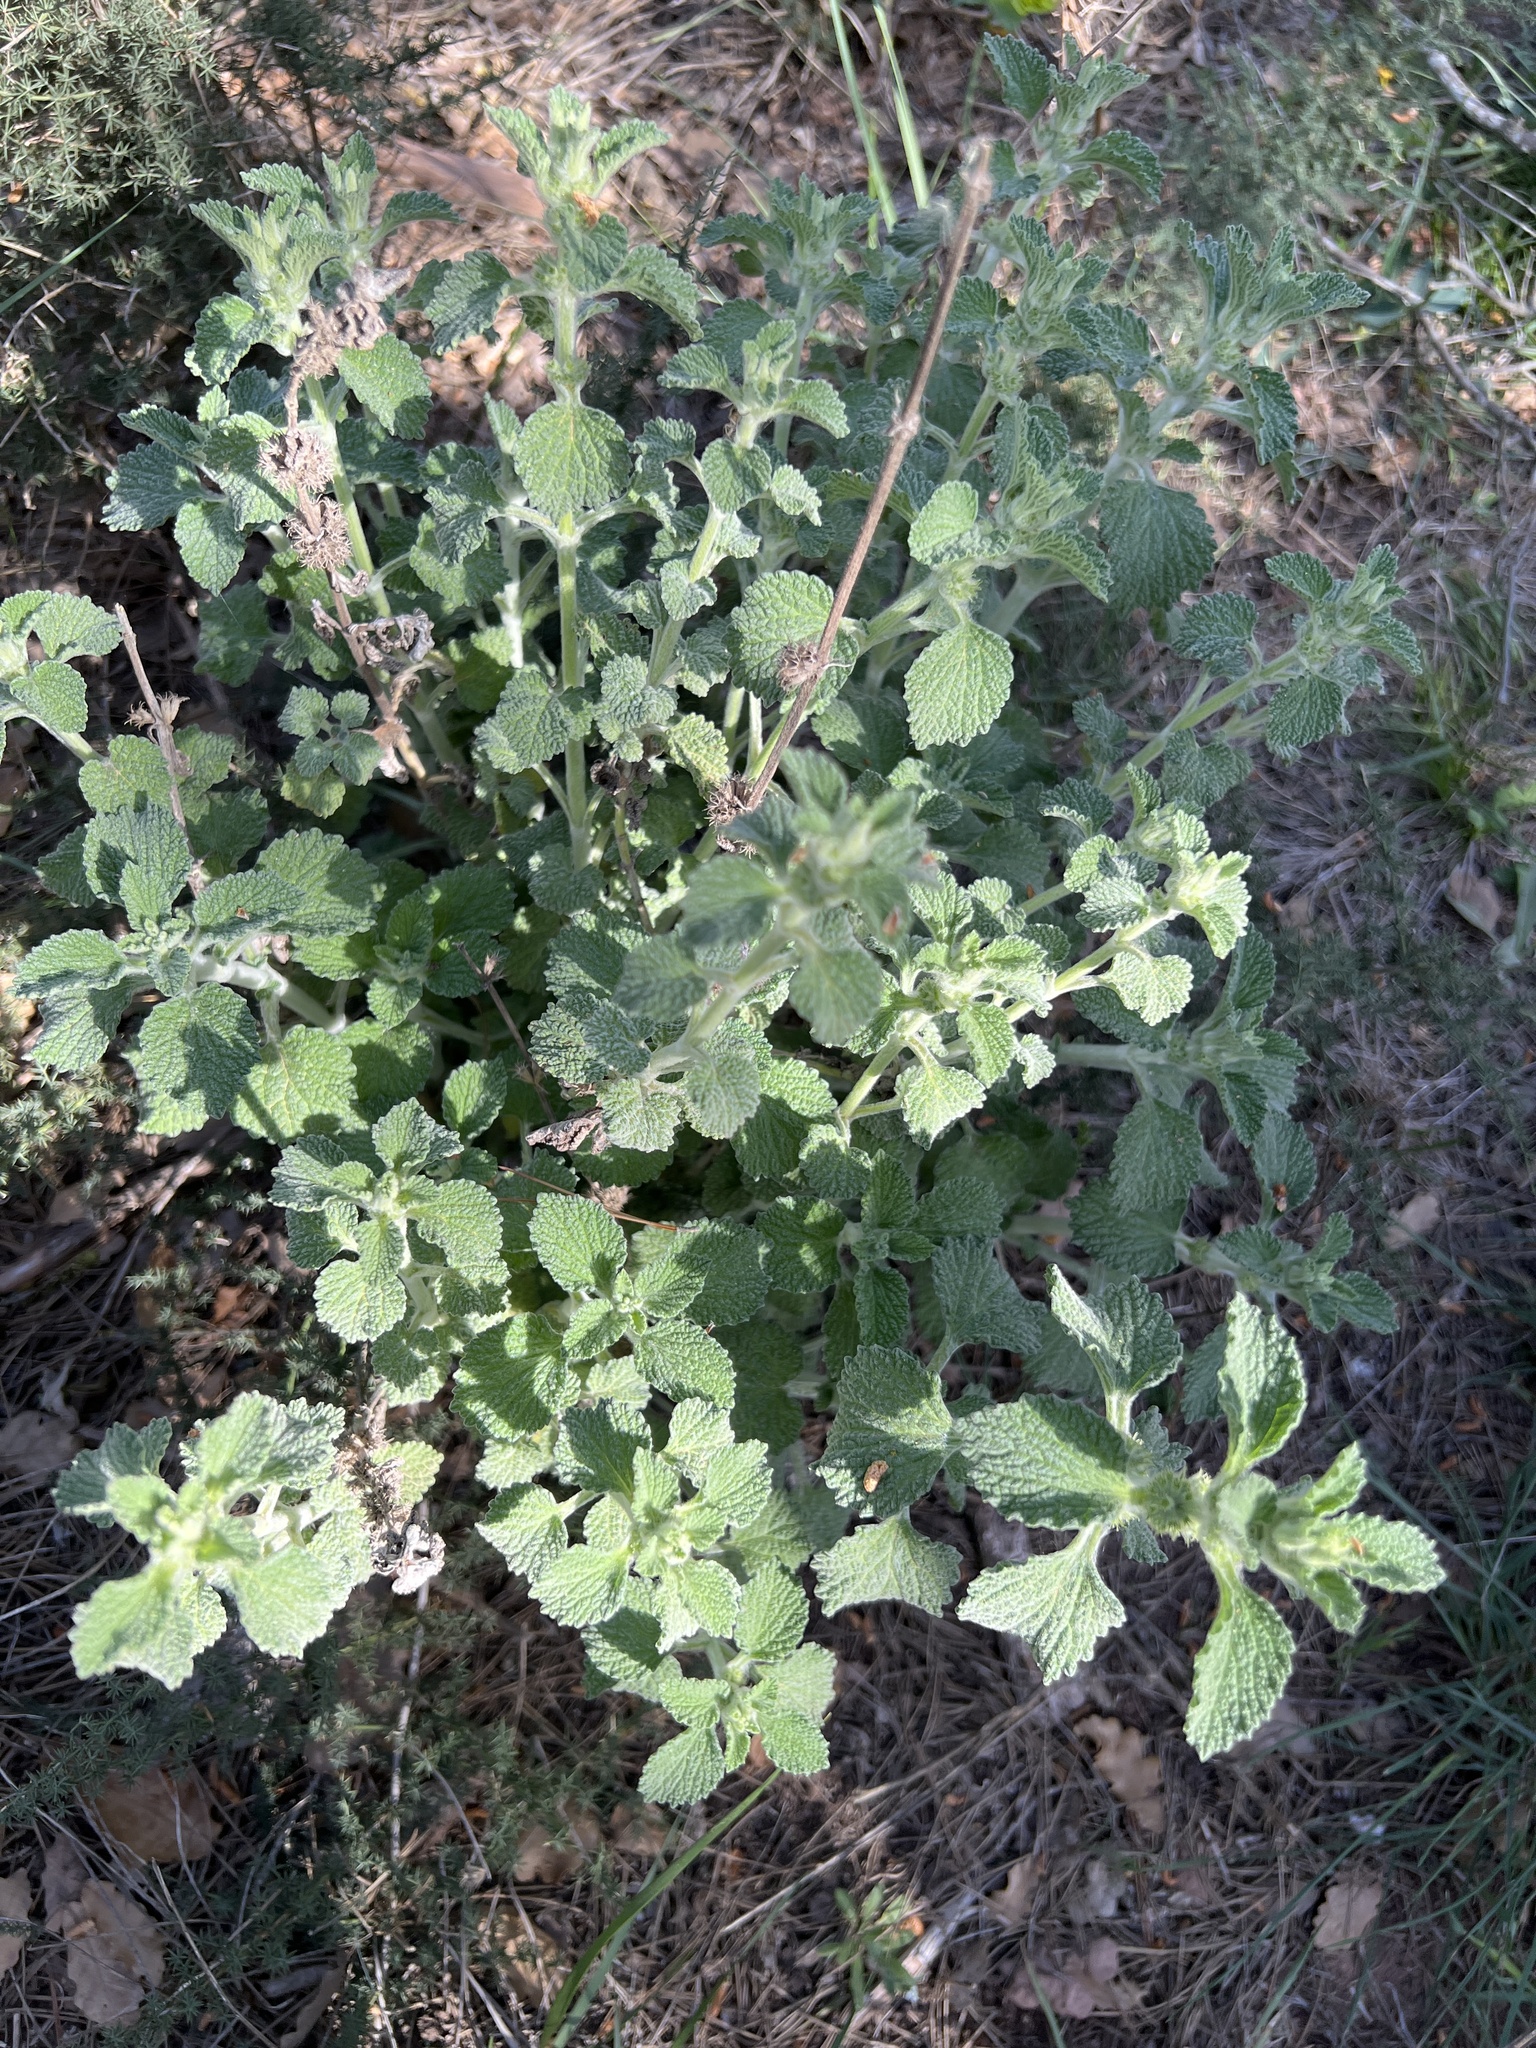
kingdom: Plantae
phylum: Tracheophyta
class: Magnoliopsida
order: Lamiales
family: Lamiaceae
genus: Marrubium
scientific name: Marrubium vulgare
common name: Horehound
